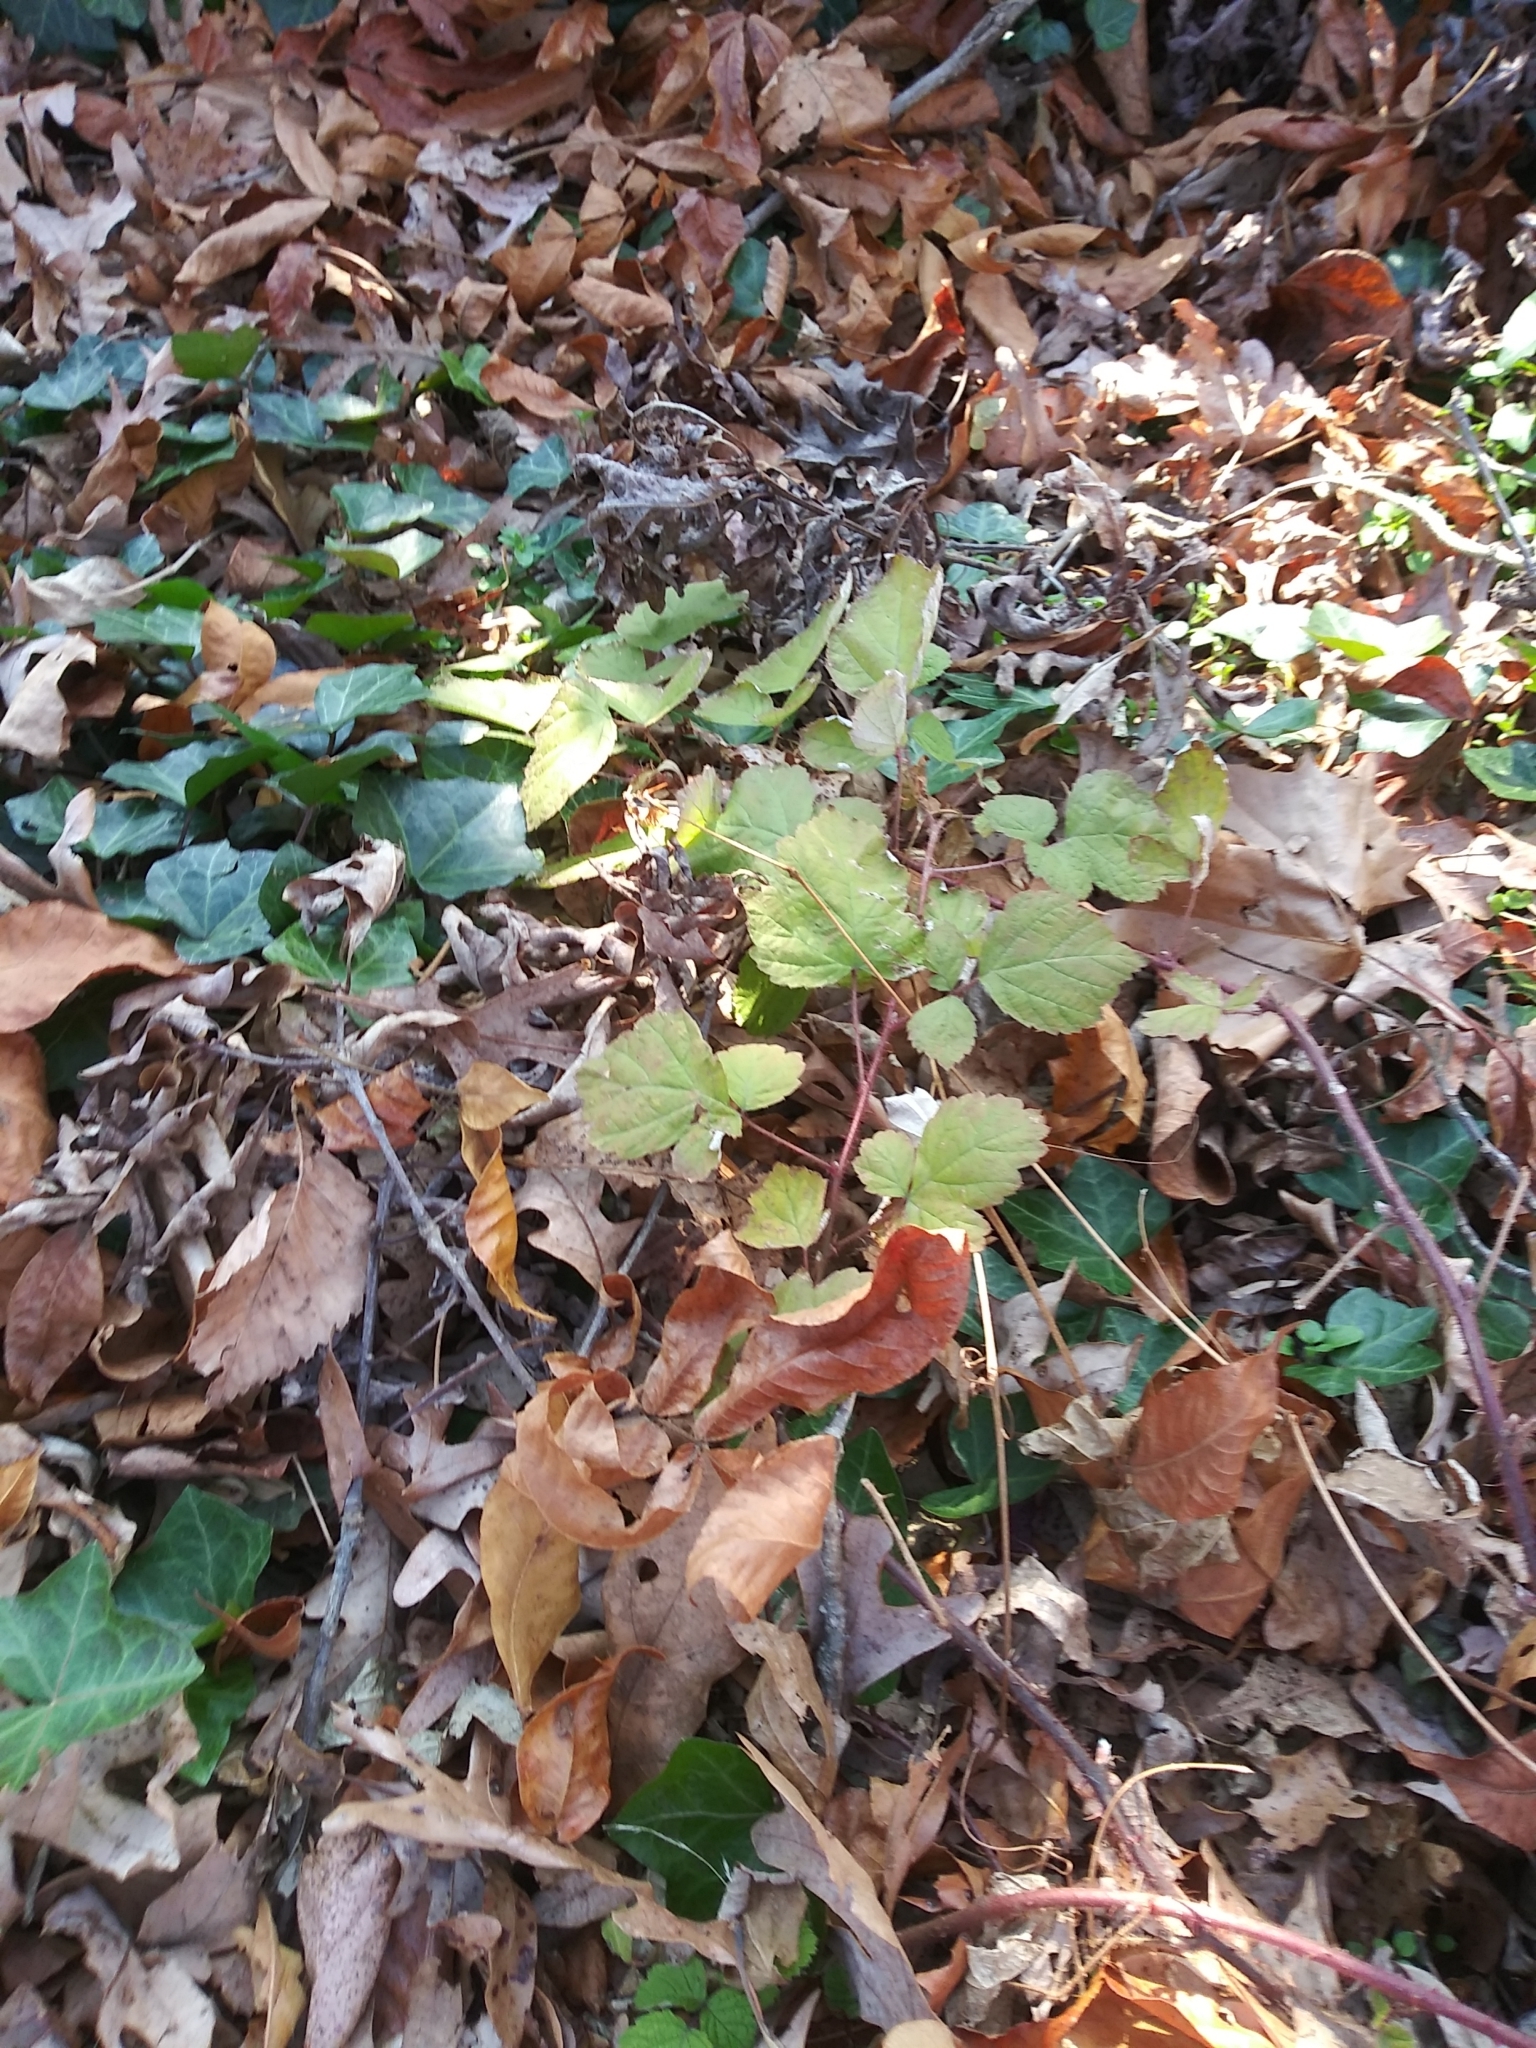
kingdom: Plantae
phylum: Tracheophyta
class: Magnoliopsida
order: Rosales
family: Rosaceae
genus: Rubus
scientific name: Rubus phoenicolasius
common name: Japanese wineberry
